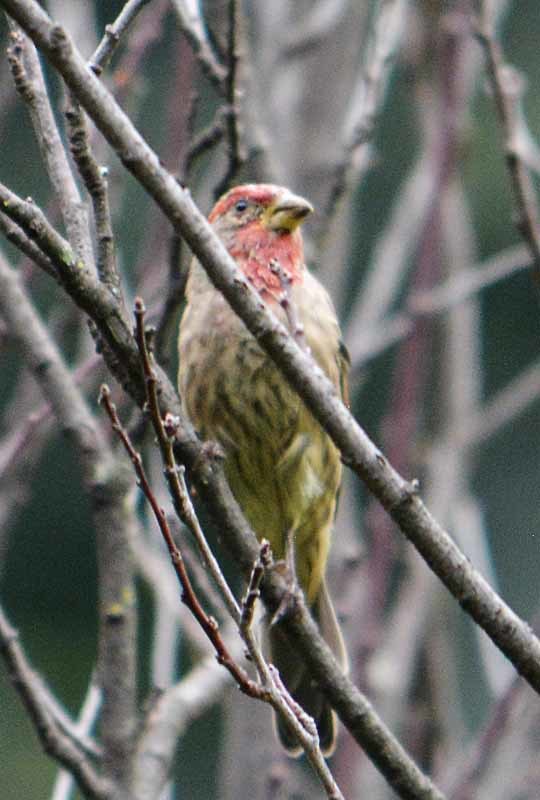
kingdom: Animalia
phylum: Chordata
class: Aves
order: Passeriformes
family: Fringillidae
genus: Haemorhous
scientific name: Haemorhous mexicanus
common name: House finch
